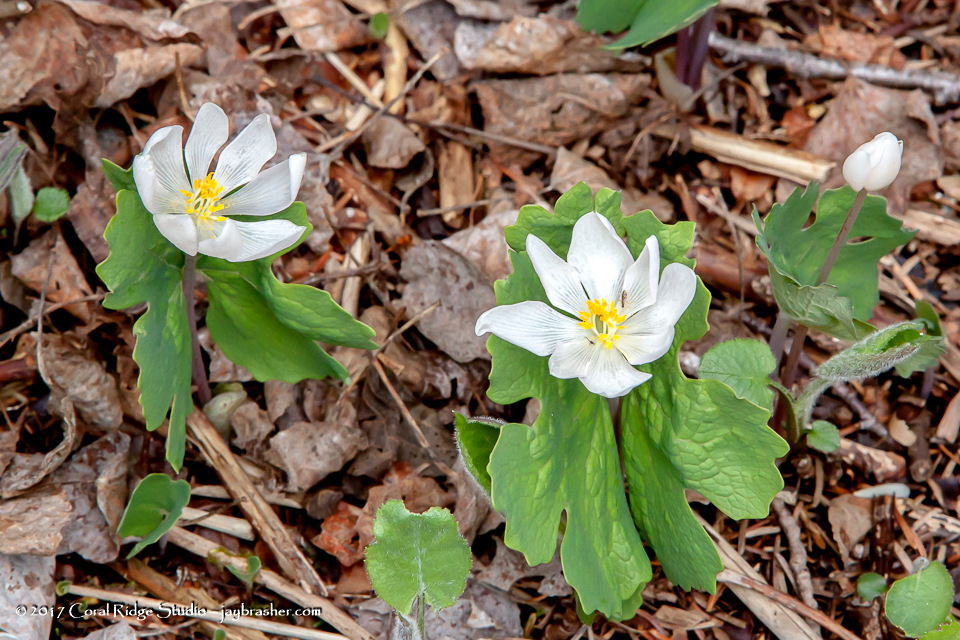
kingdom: Plantae
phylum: Tracheophyta
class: Magnoliopsida
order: Ranunculales
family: Papaveraceae
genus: Sanguinaria
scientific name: Sanguinaria canadensis
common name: Bloodroot
